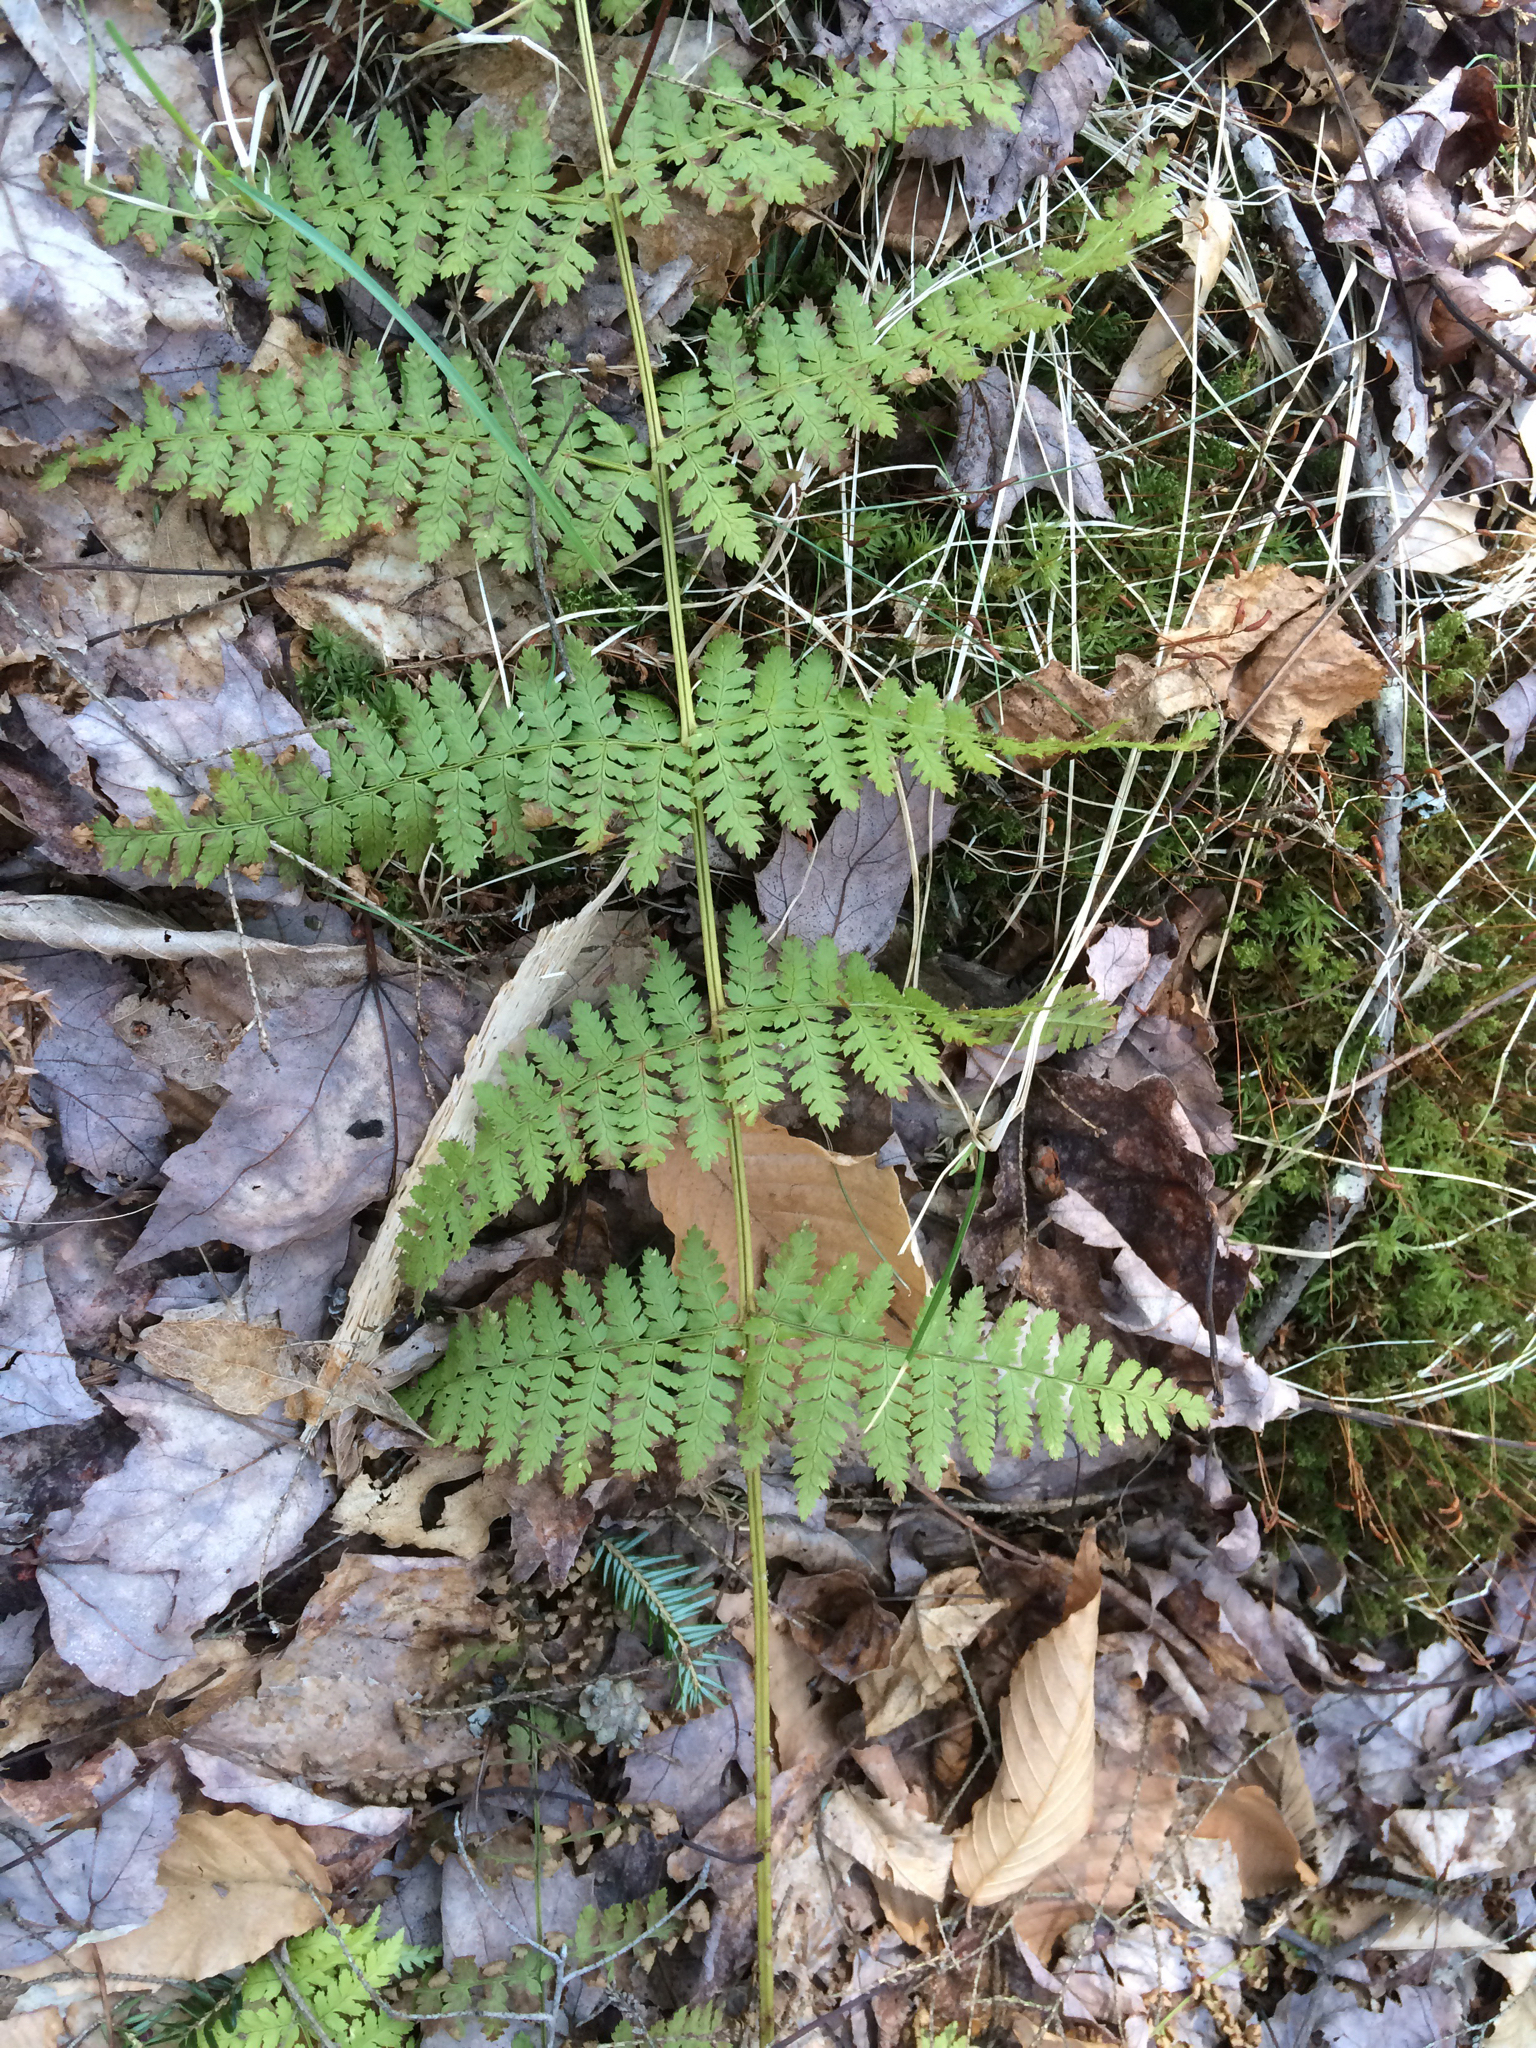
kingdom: Plantae
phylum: Tracheophyta
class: Polypodiopsida
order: Polypodiales
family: Dryopteridaceae
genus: Dryopteris
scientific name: Dryopteris intermedia
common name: Evergreen wood fern
